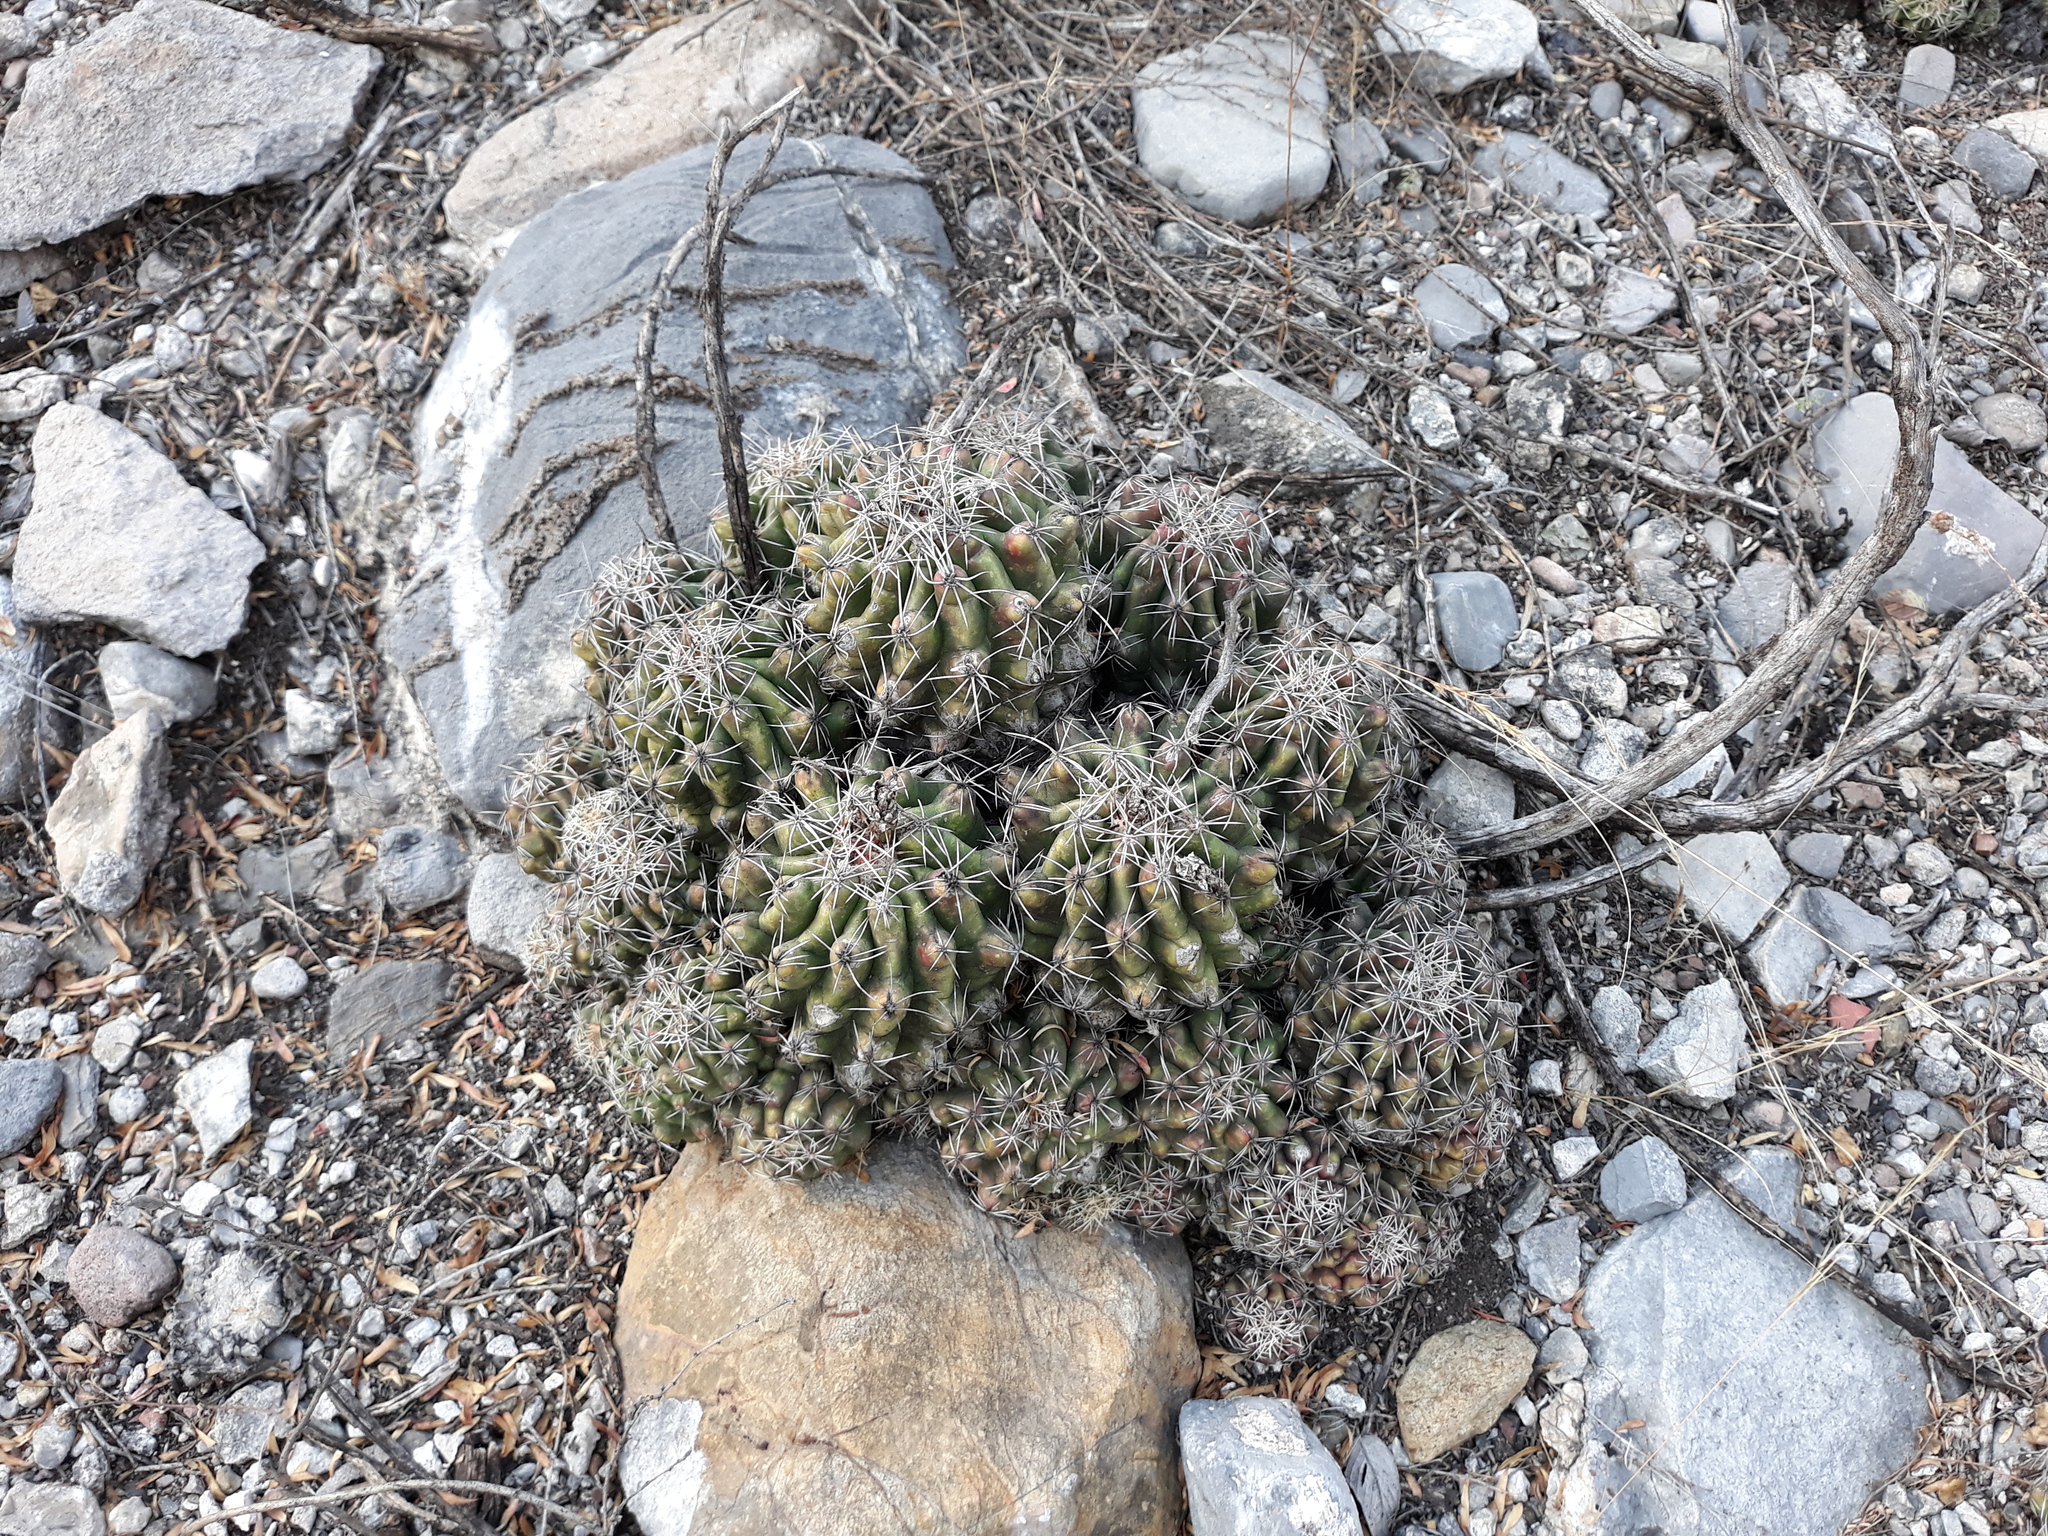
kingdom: Plantae
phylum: Tracheophyta
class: Magnoliopsida
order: Caryophyllales
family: Cactaceae
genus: Thelocactus
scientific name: Thelocactus leucacanthus
